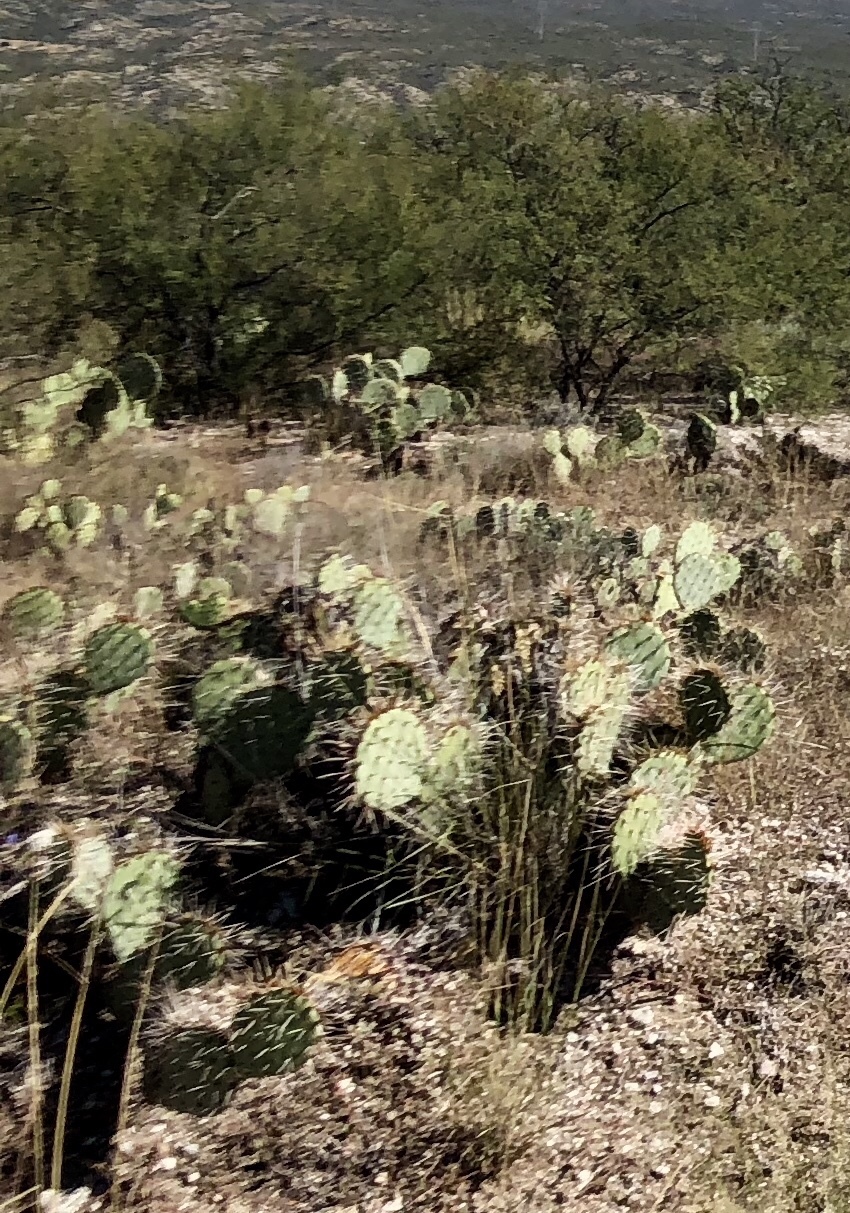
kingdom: Plantae
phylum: Tracheophyta
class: Magnoliopsida
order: Caryophyllales
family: Cactaceae
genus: Opuntia
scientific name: Opuntia engelmannii
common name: Cactus-apple
